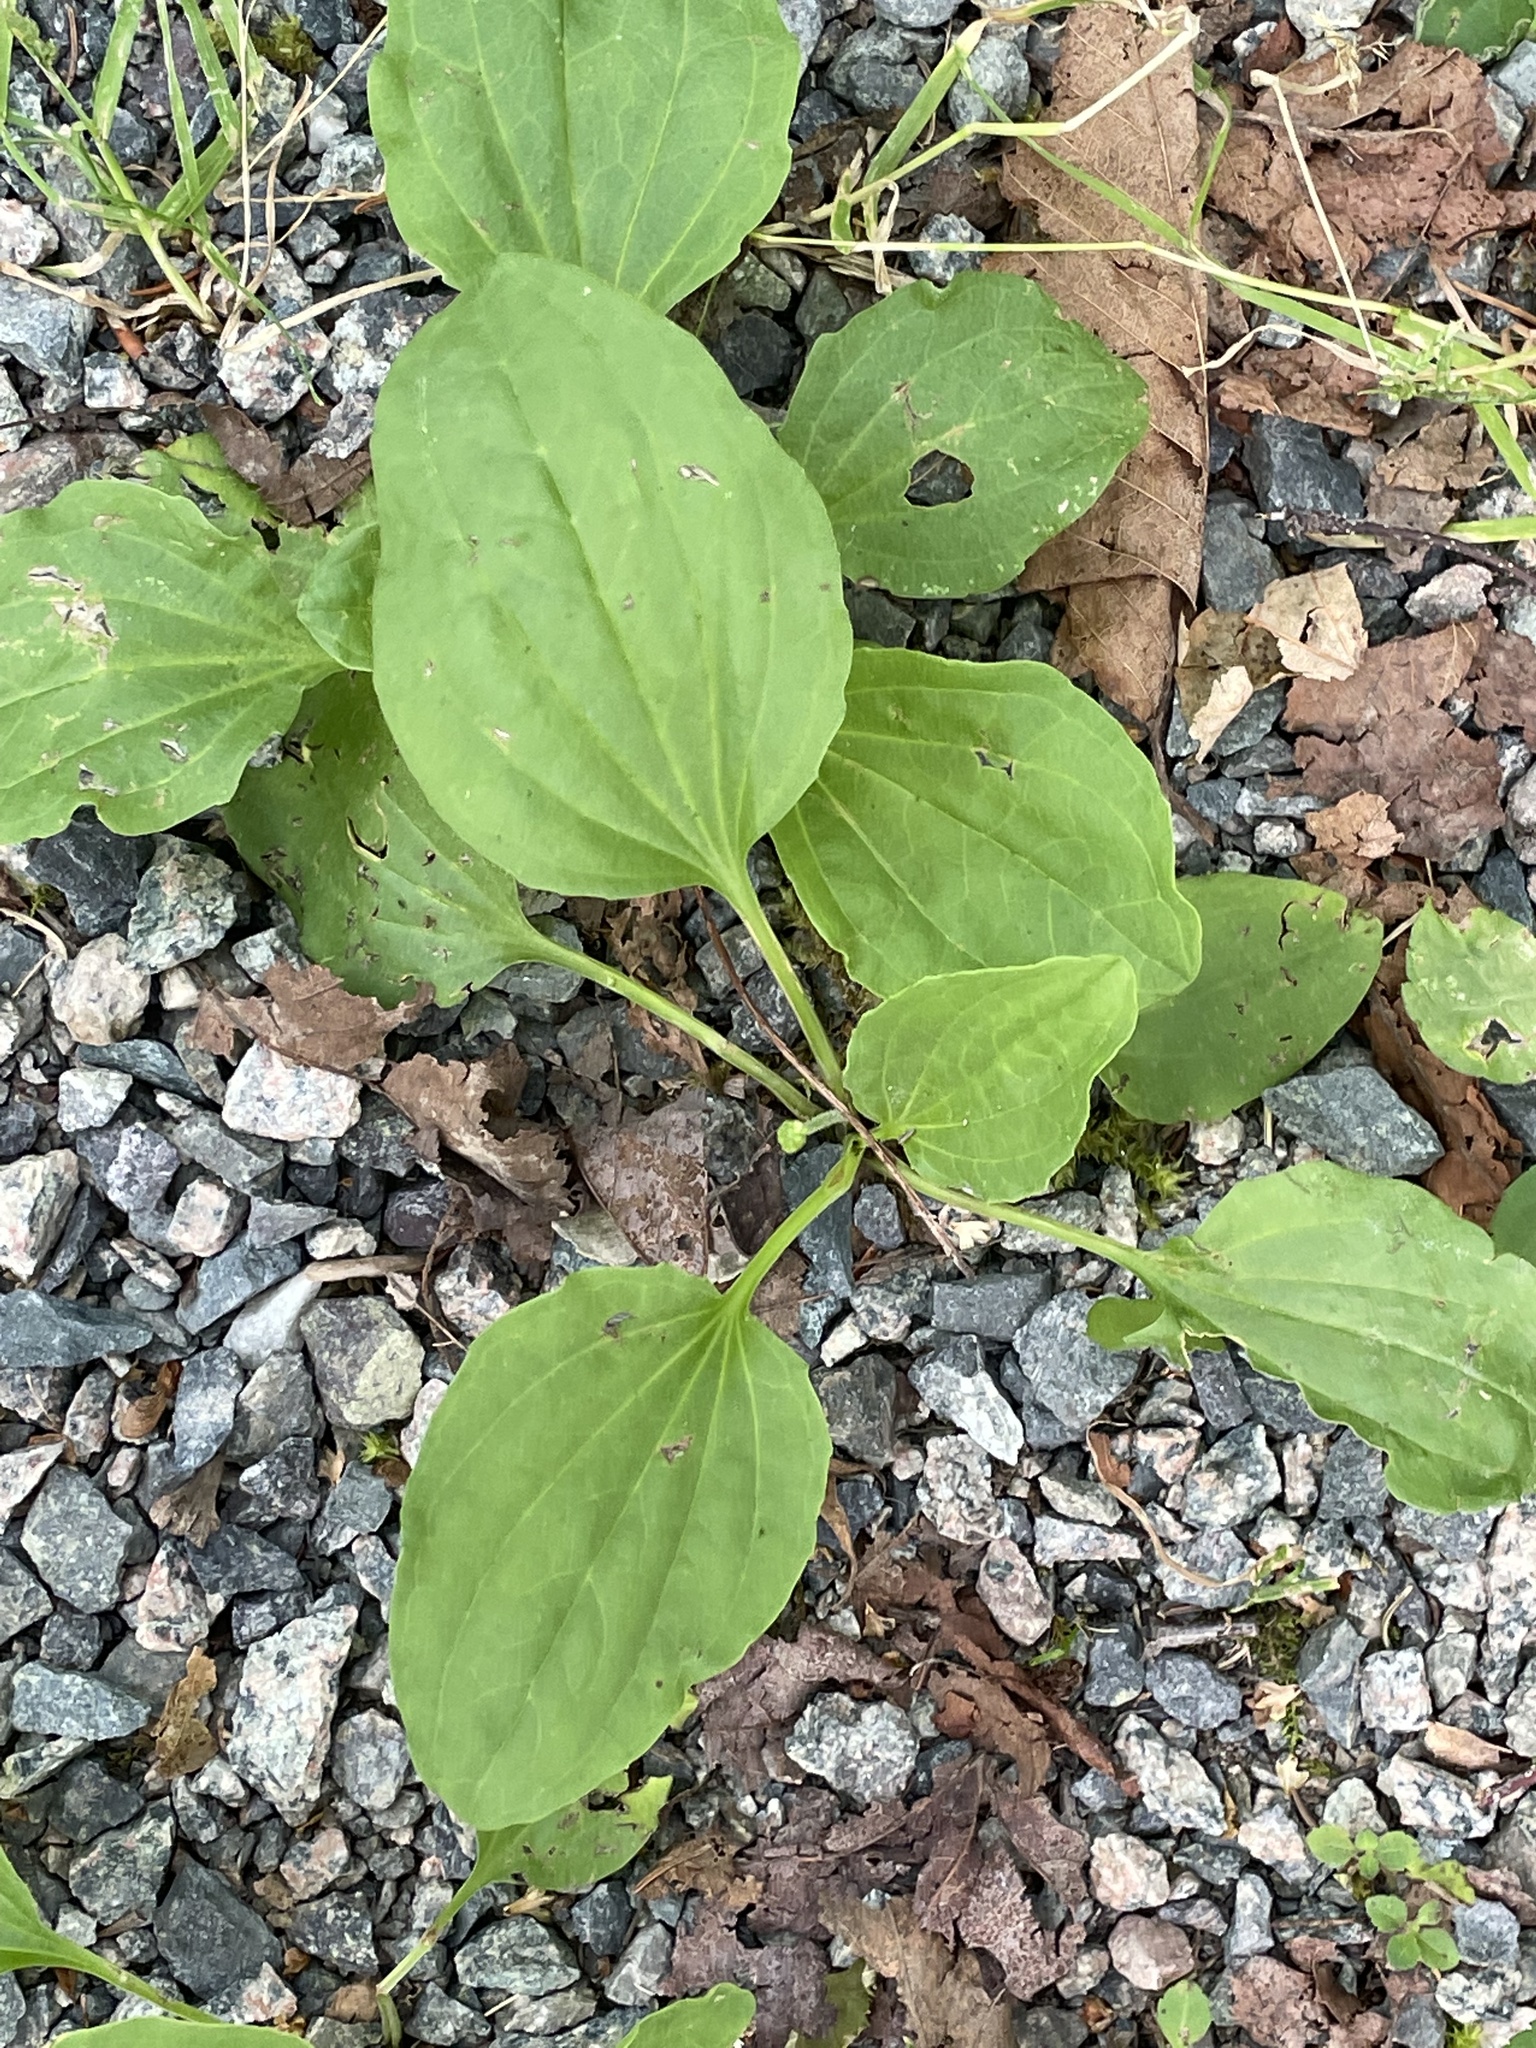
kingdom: Plantae
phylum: Tracheophyta
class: Magnoliopsida
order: Lamiales
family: Plantaginaceae
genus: Plantago
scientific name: Plantago major
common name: Common plantain
